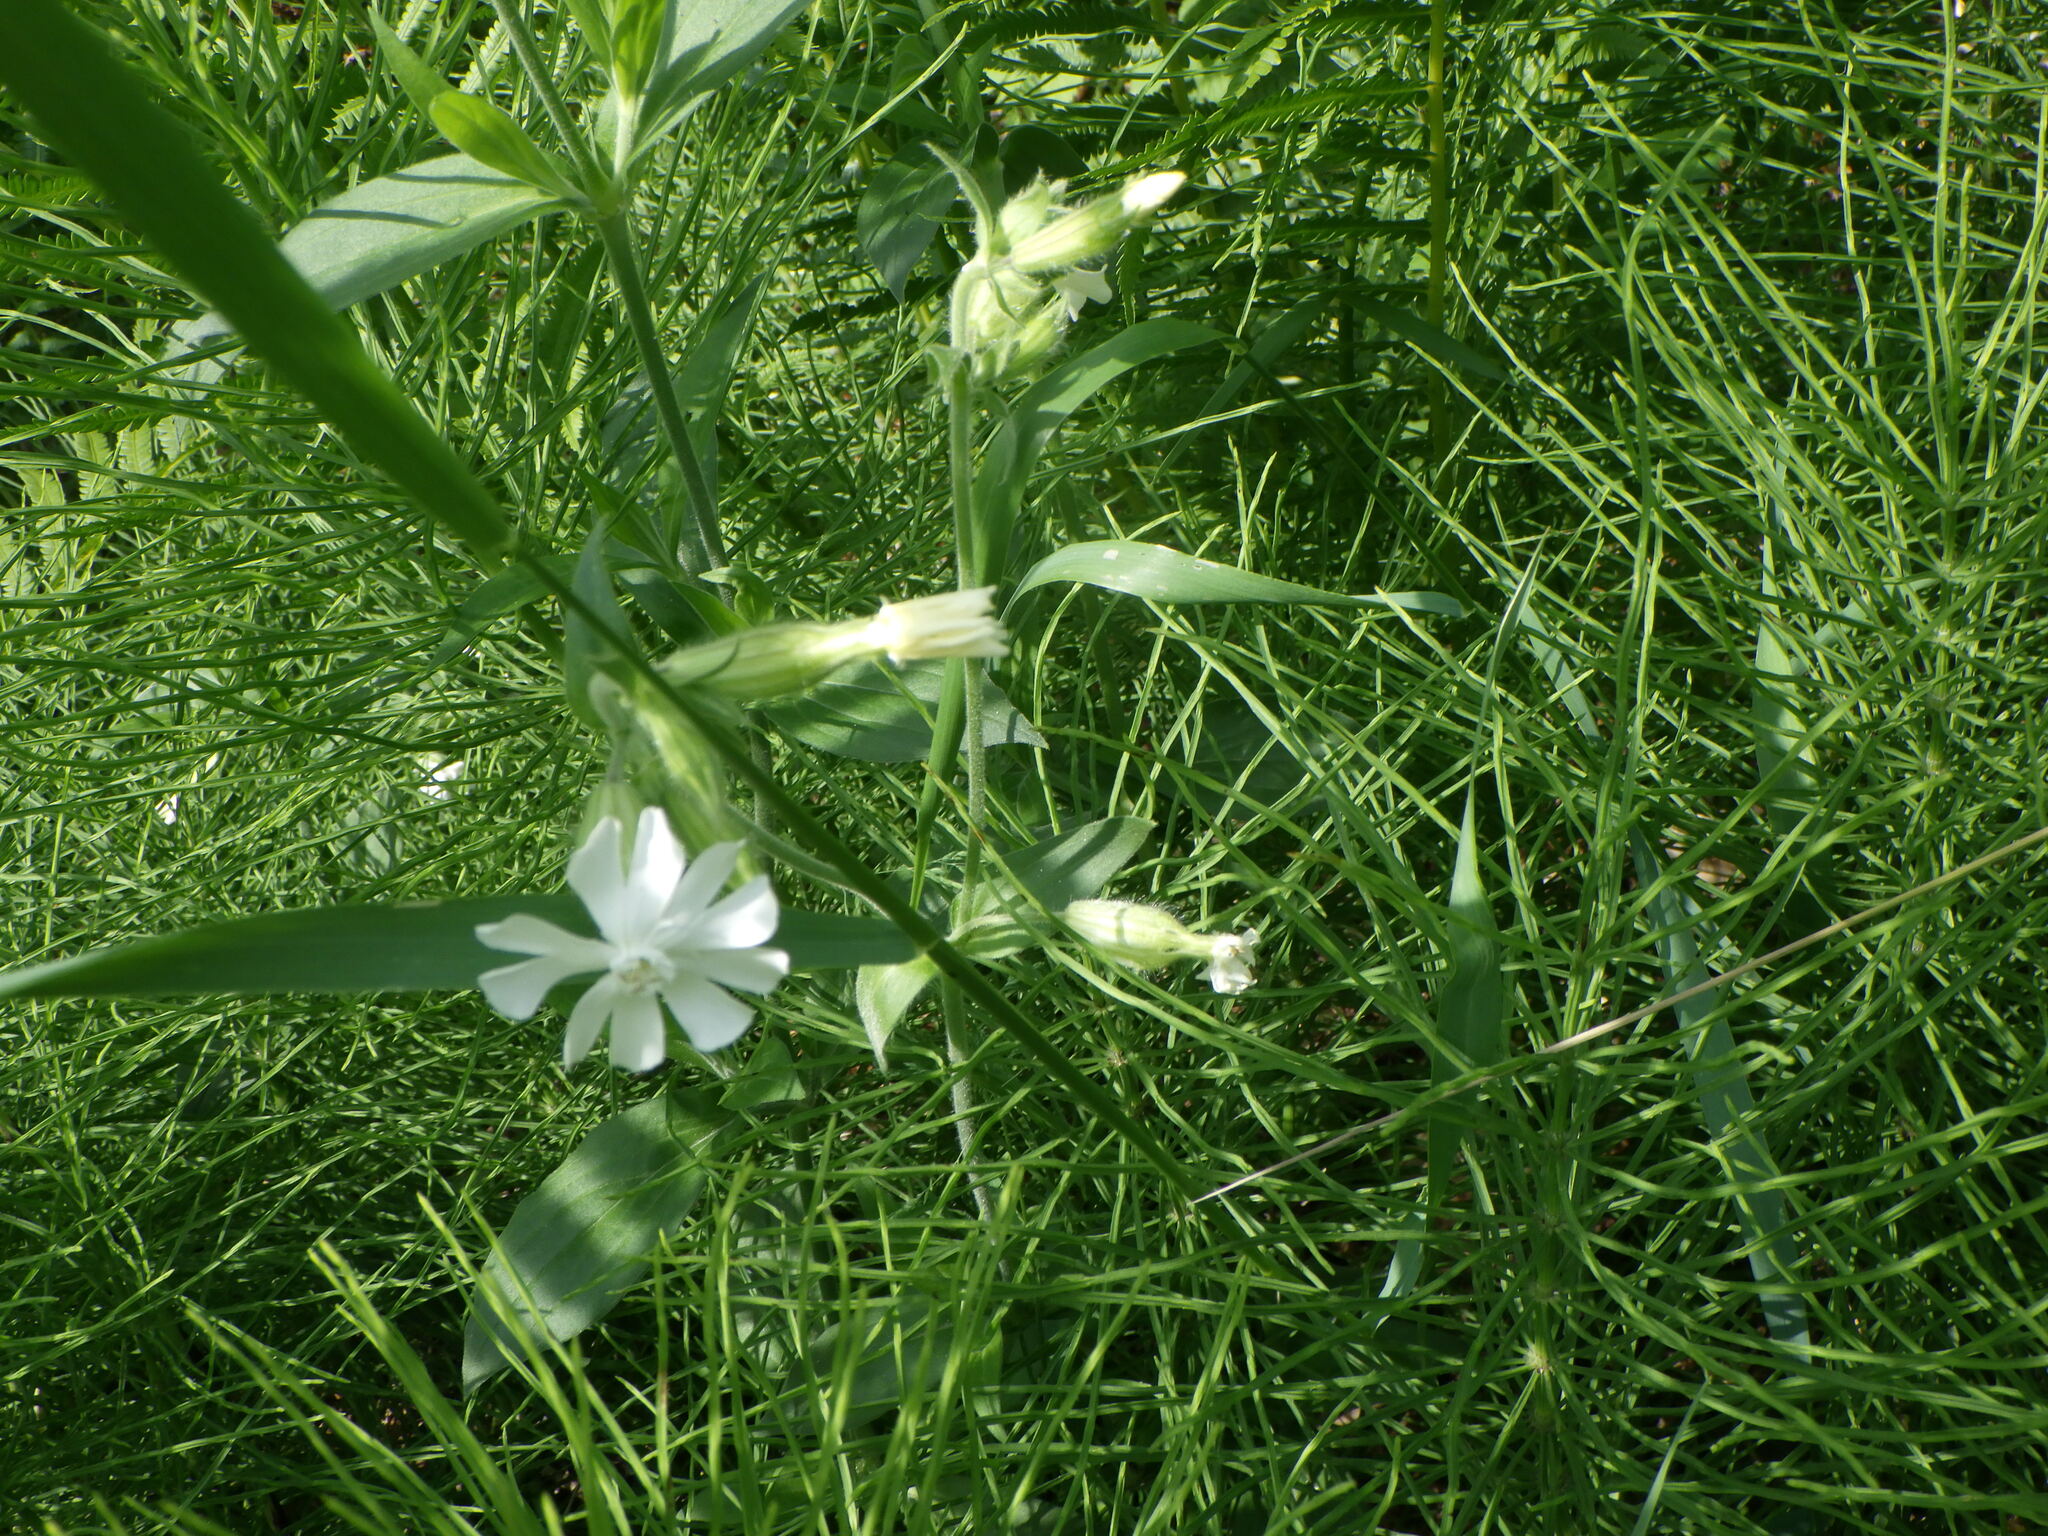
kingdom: Plantae
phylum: Tracheophyta
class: Magnoliopsida
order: Caryophyllales
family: Caryophyllaceae
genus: Silene
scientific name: Silene latifolia
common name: White campion
